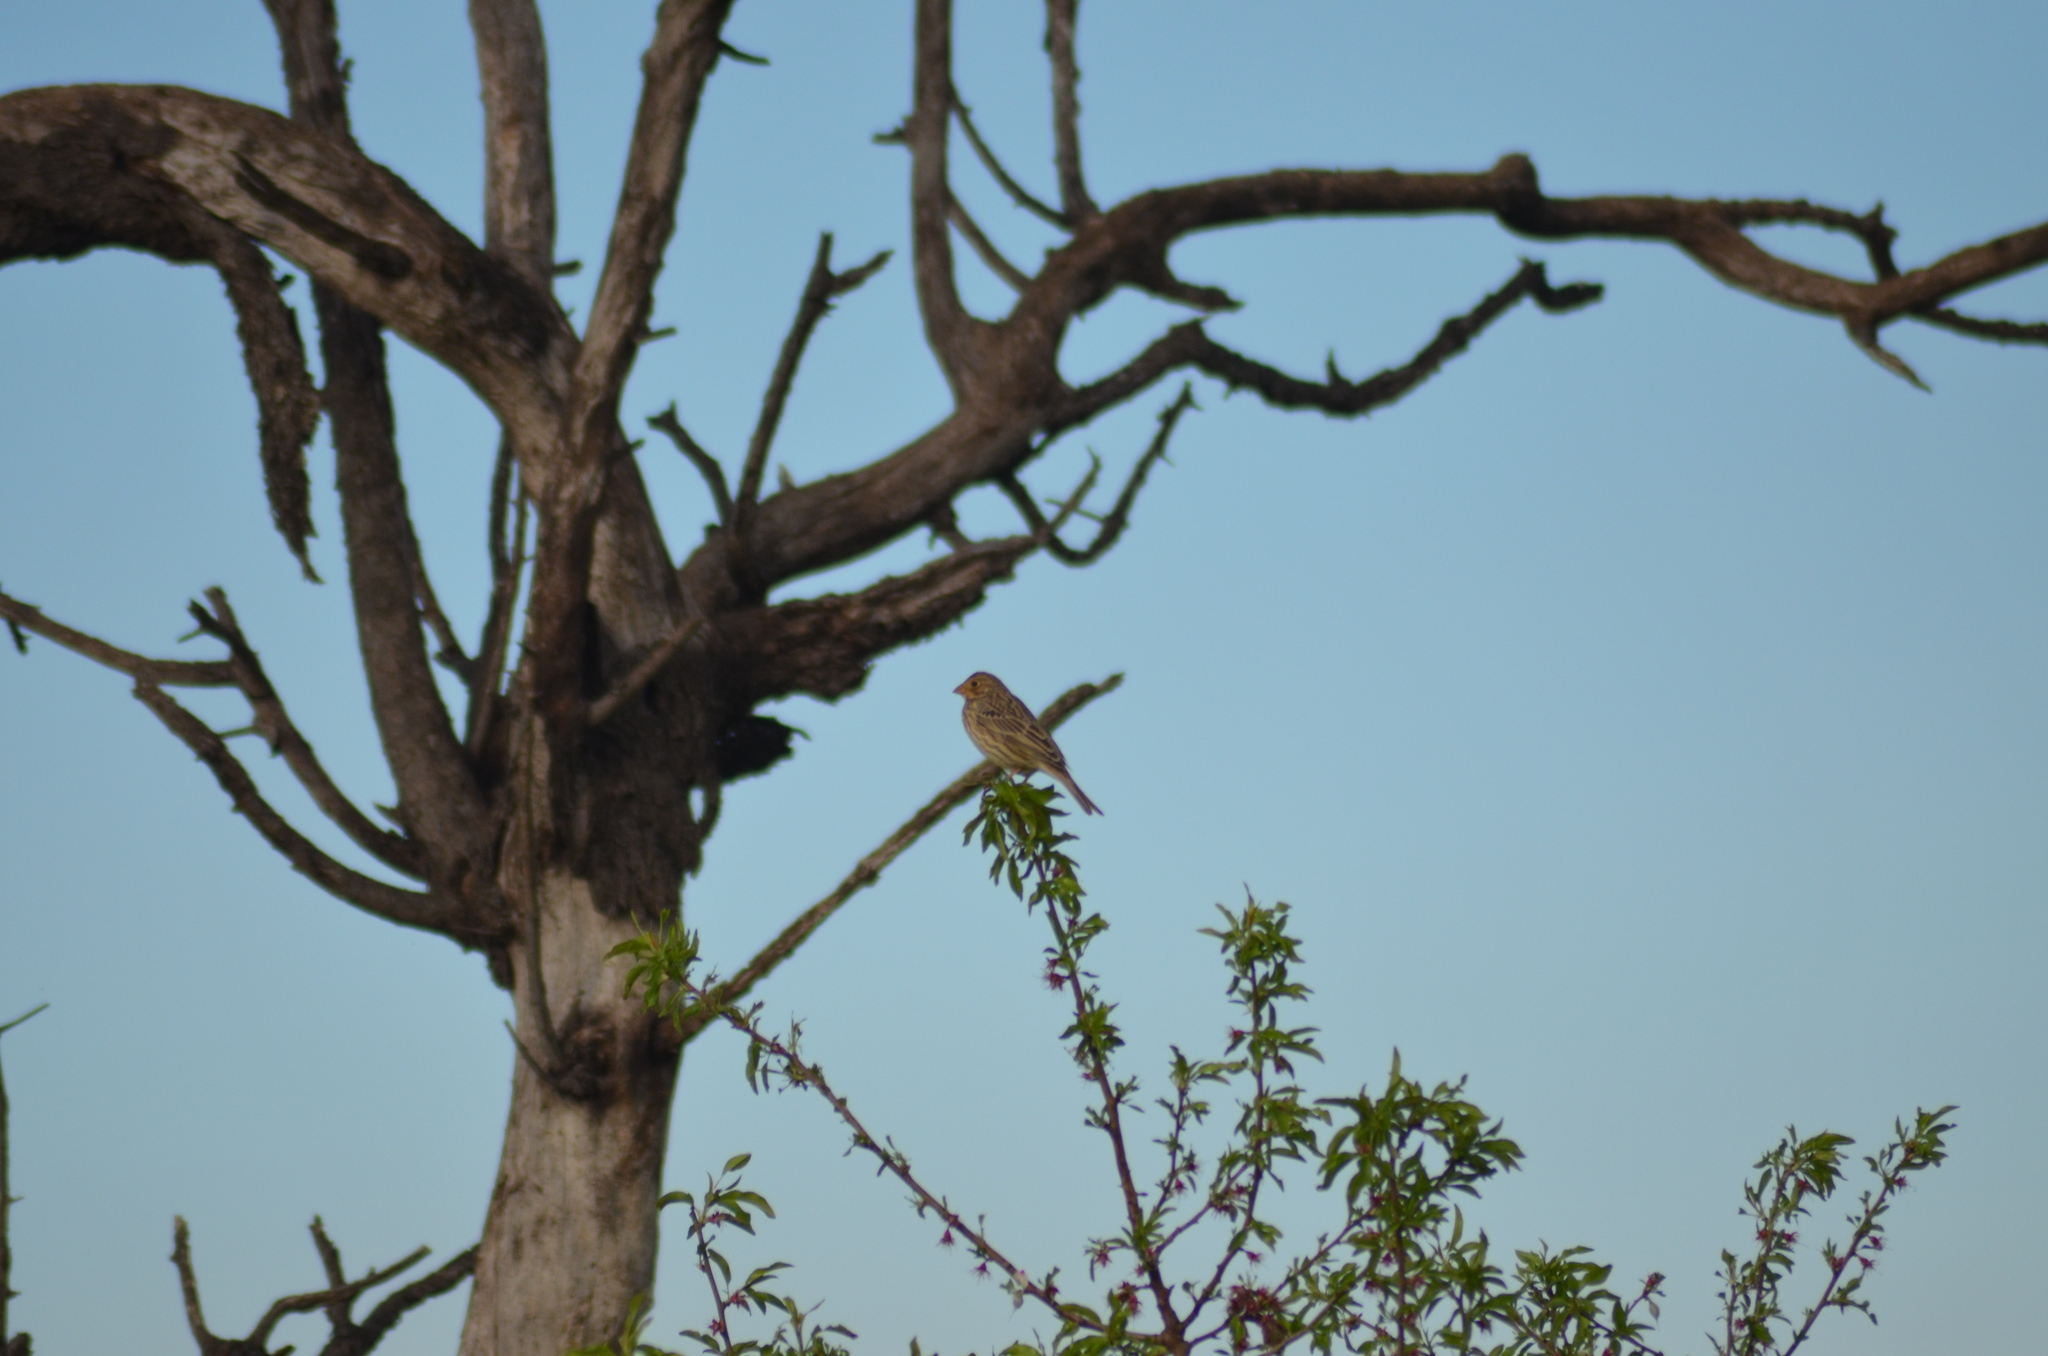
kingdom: Animalia
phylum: Chordata
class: Aves
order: Passeriformes
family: Emberizidae
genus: Emberiza
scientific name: Emberiza calandra
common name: Corn bunting
